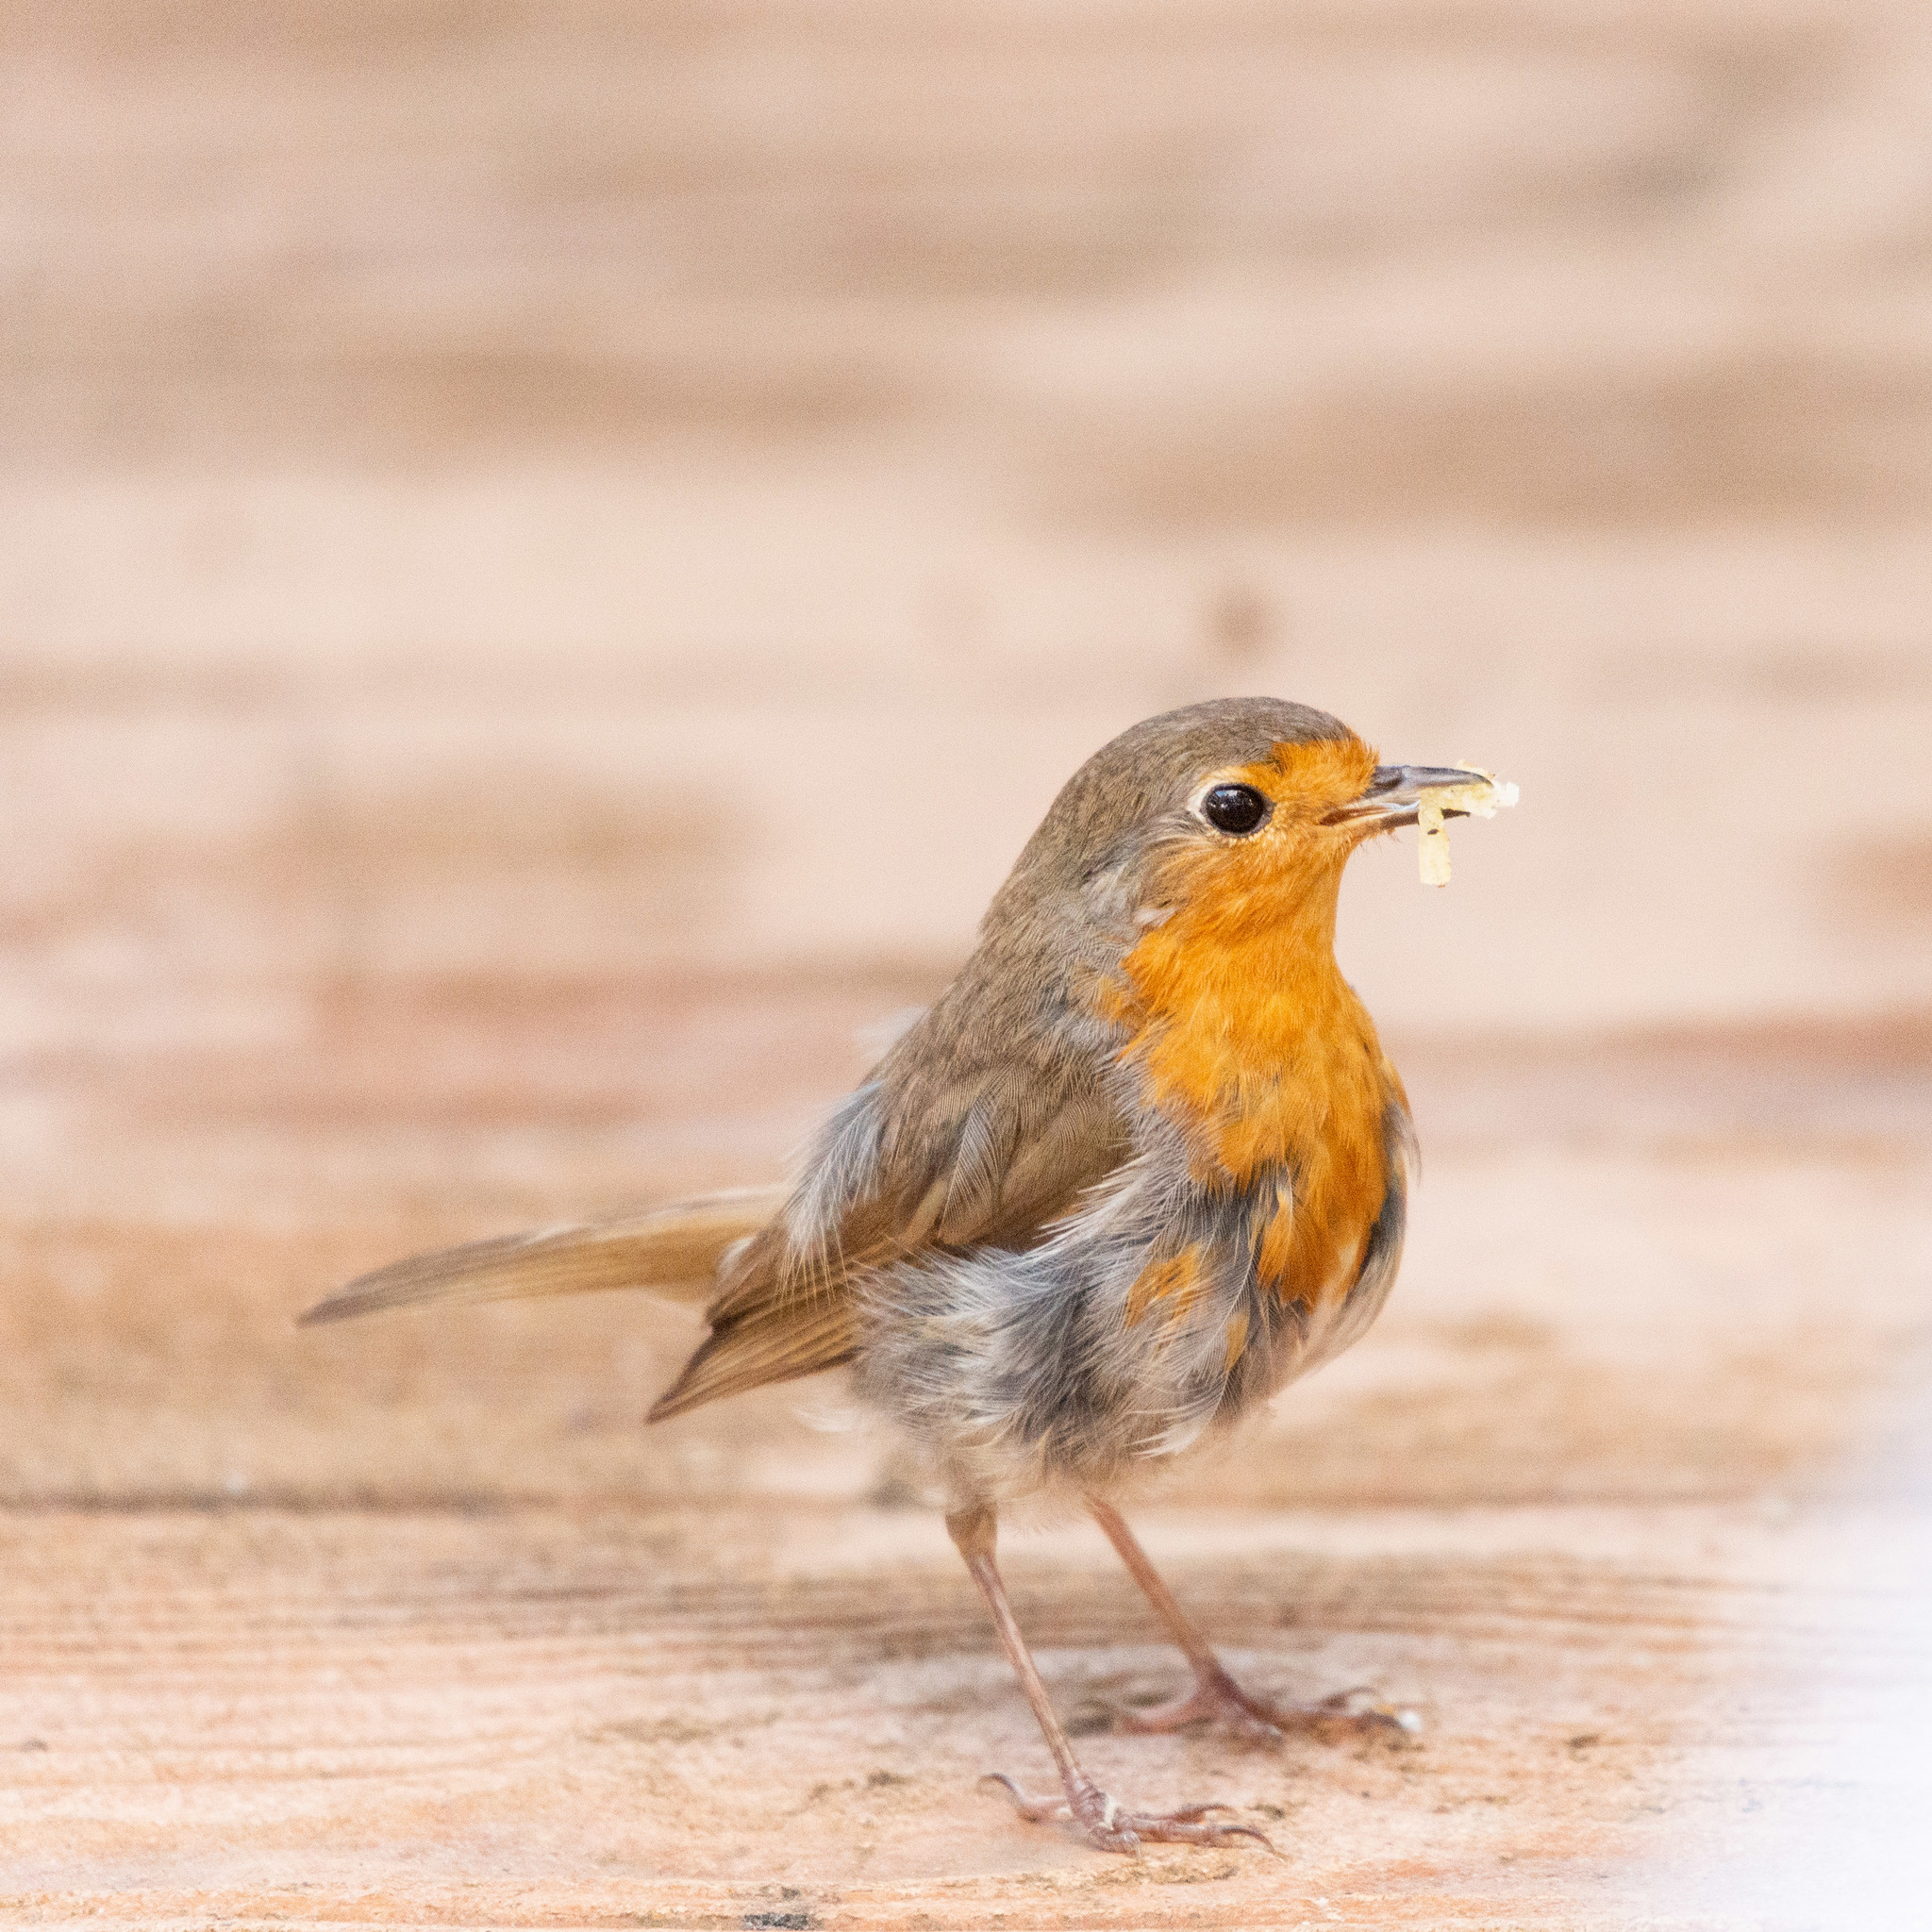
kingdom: Animalia
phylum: Chordata
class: Aves
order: Passeriformes
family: Muscicapidae
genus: Erithacus
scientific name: Erithacus rubecula
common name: European robin
